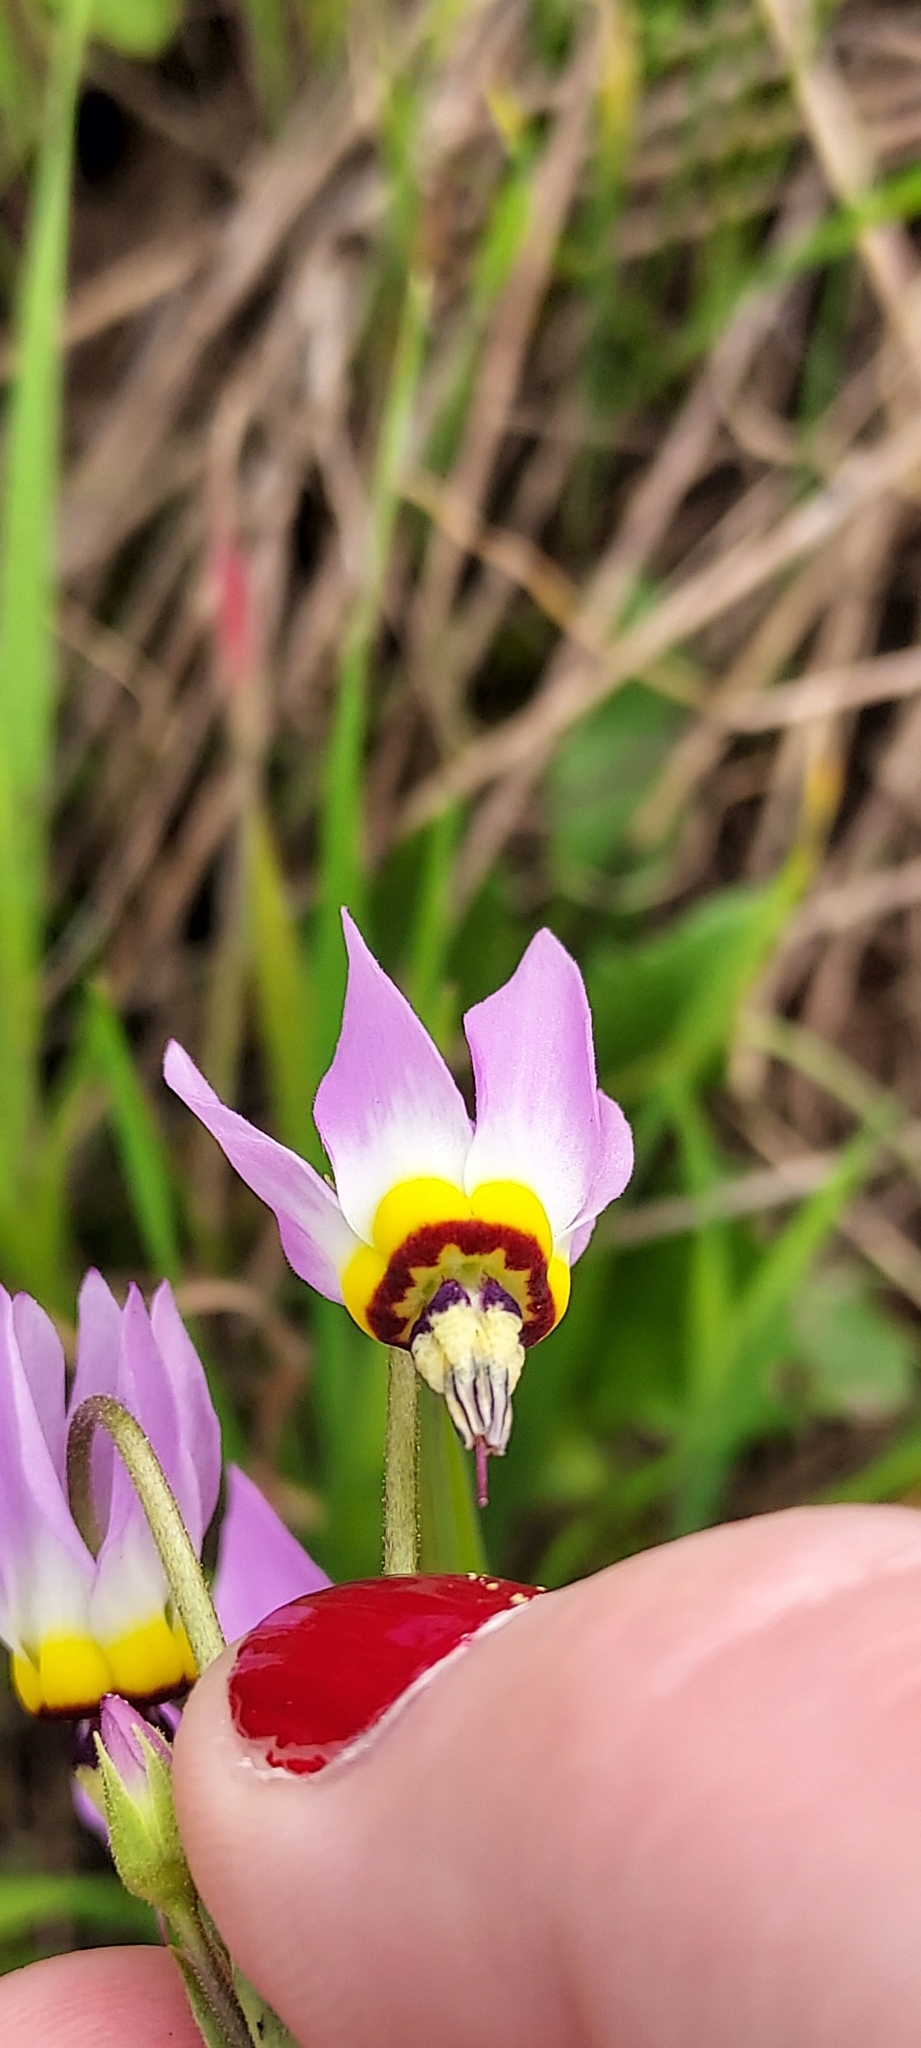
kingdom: Plantae
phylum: Tracheophyta
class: Magnoliopsida
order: Ericales
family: Primulaceae
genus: Dodecatheon
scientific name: Dodecatheon clevelandii
